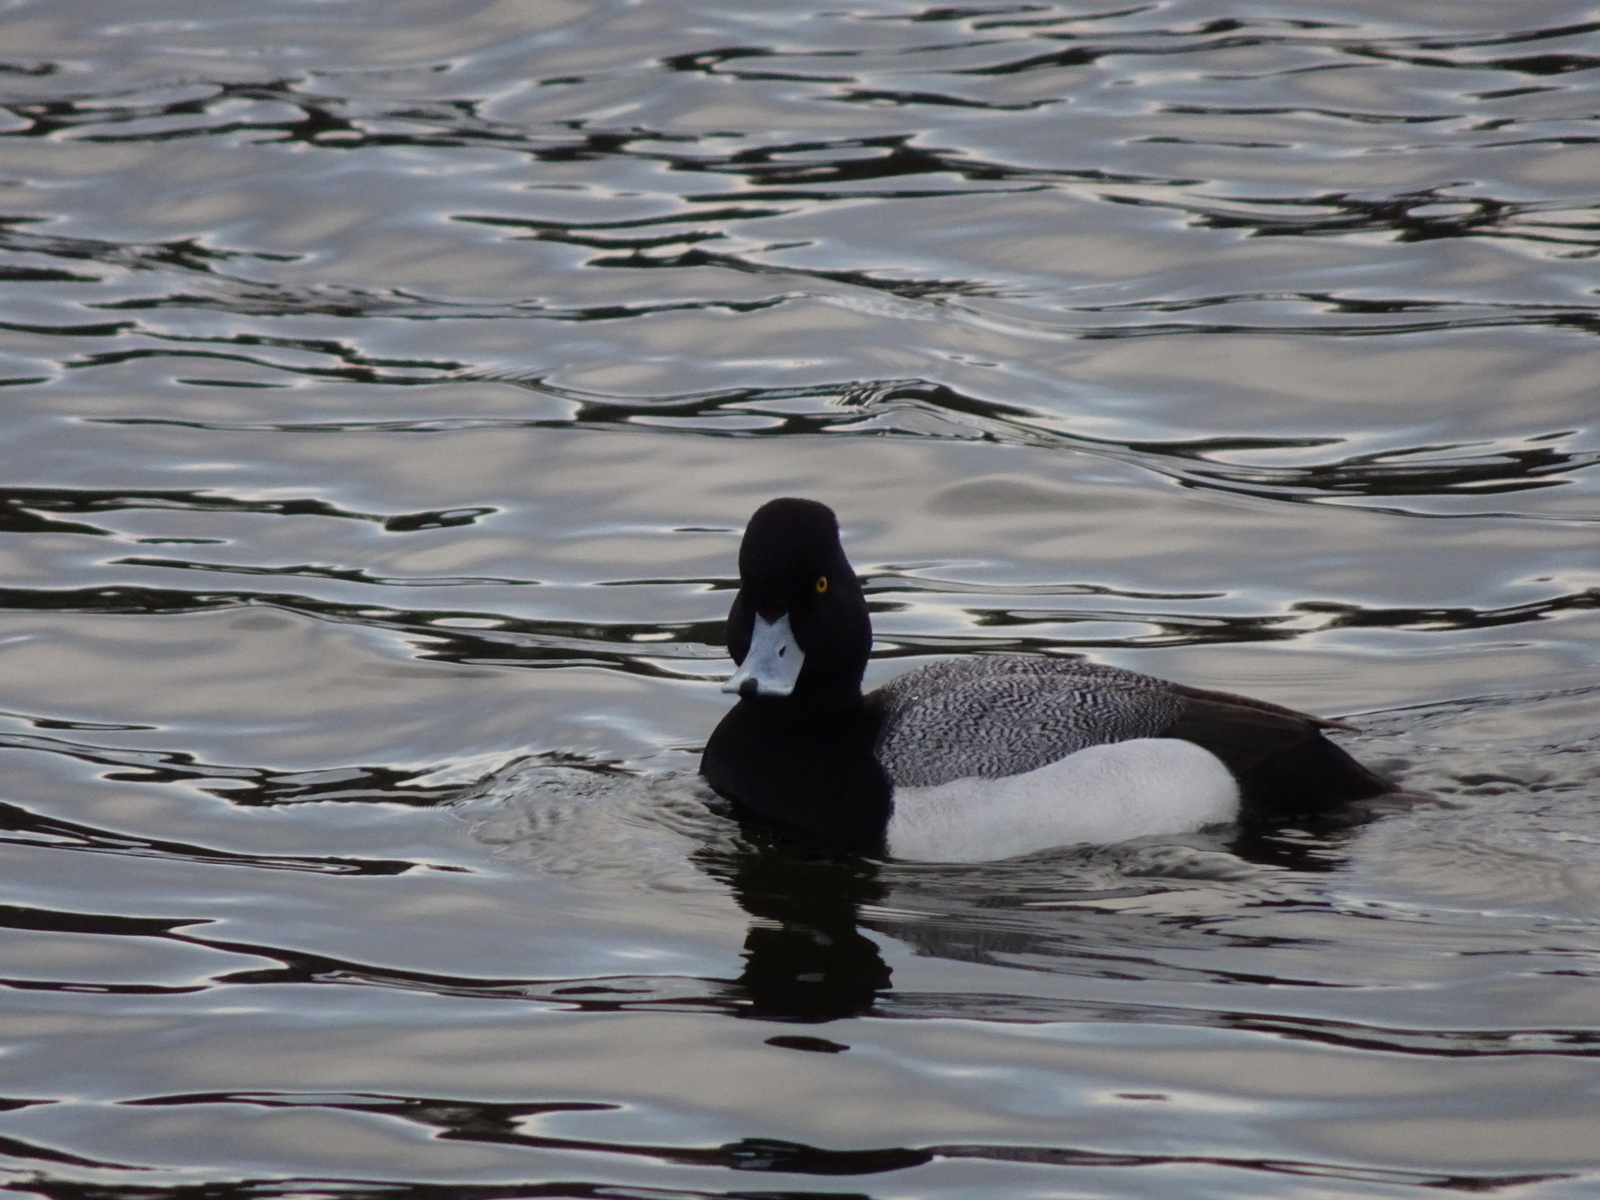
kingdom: Animalia
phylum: Chordata
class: Aves
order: Anseriformes
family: Anatidae
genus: Aythya
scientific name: Aythya affinis
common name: Lesser scaup
